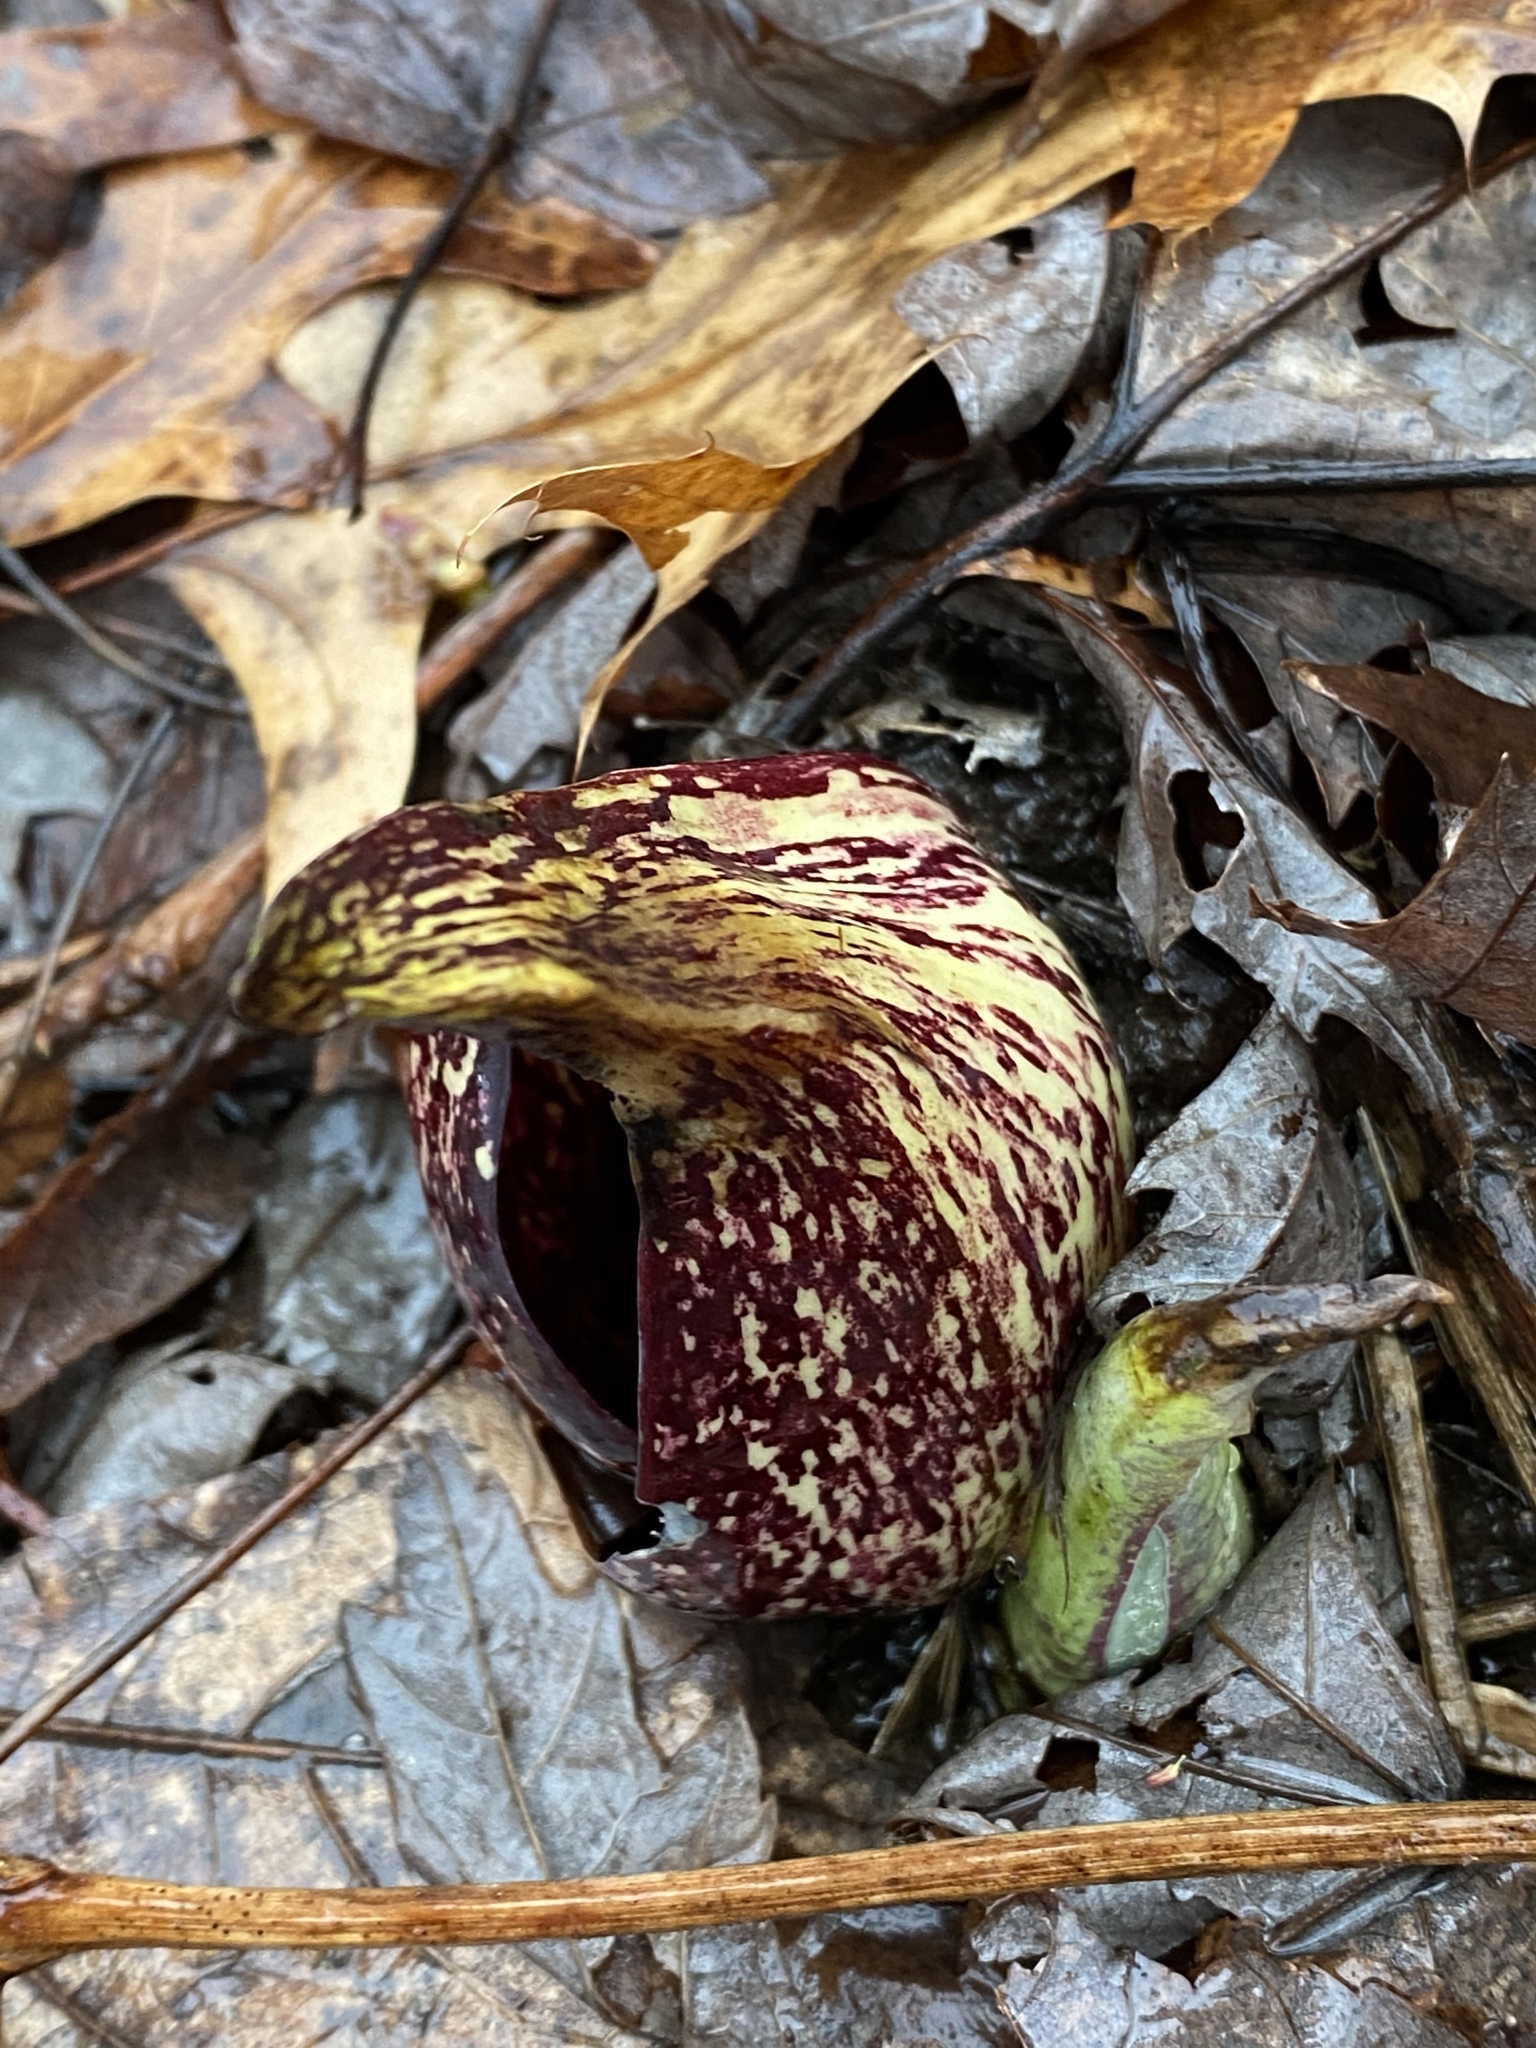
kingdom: Plantae
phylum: Tracheophyta
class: Liliopsida
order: Alismatales
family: Araceae
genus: Symplocarpus
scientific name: Symplocarpus foetidus
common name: Eastern skunk cabbage
